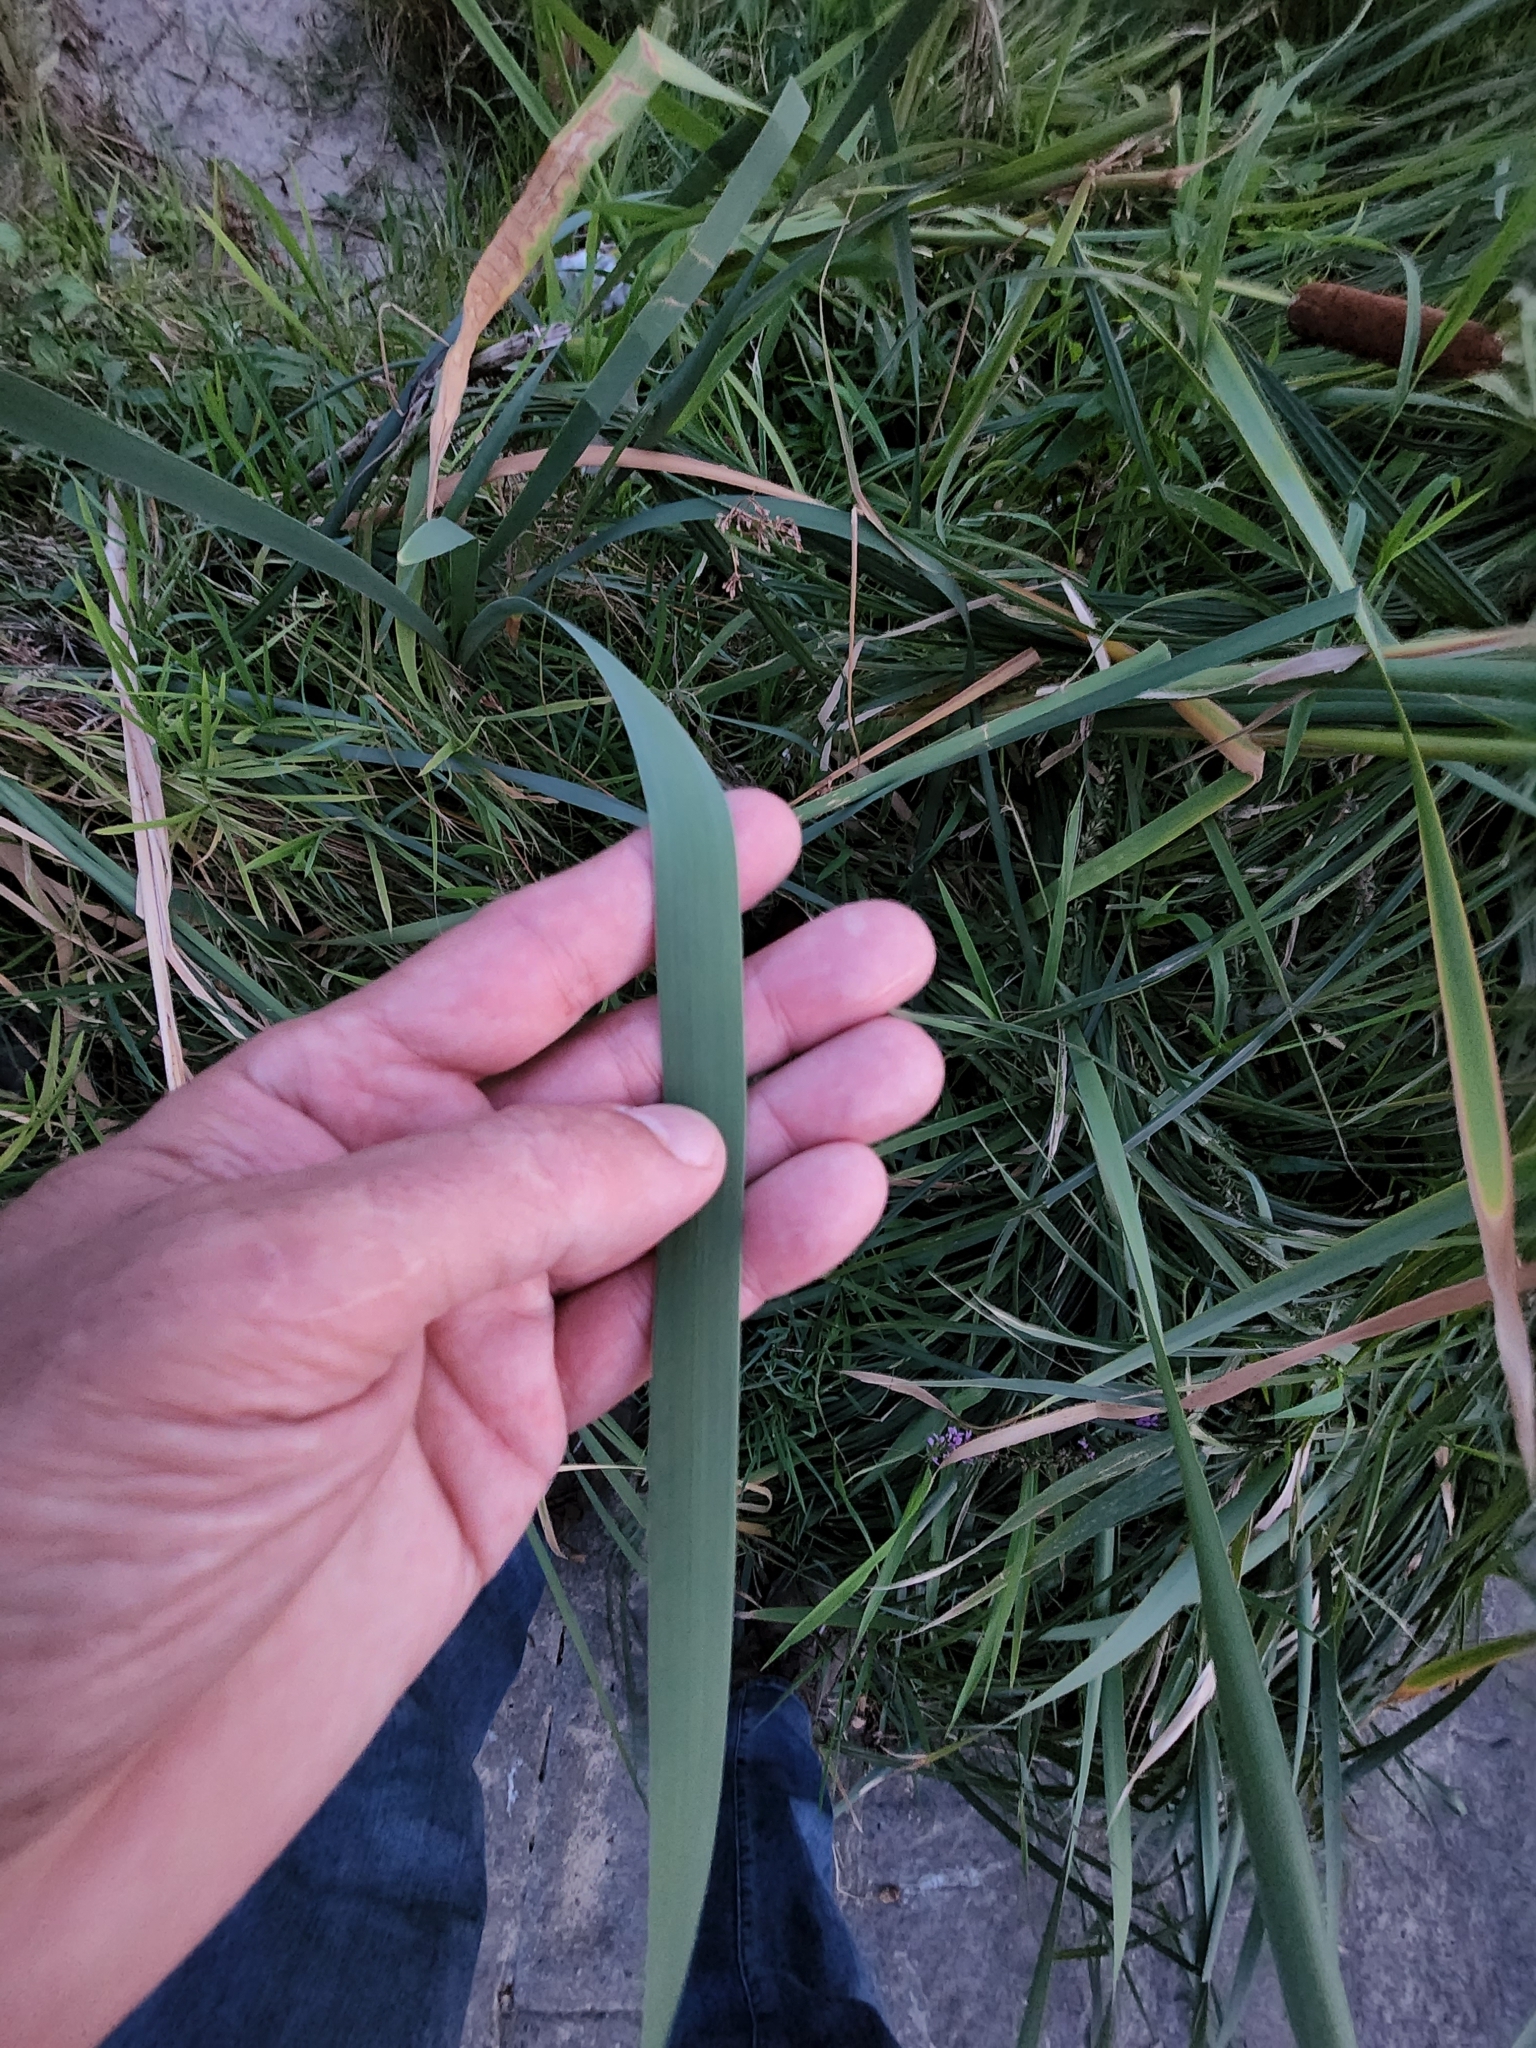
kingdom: Plantae
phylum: Tracheophyta
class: Liliopsida
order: Poales
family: Typhaceae
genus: Typha
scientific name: Typha latifolia
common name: Broadleaf cattail
